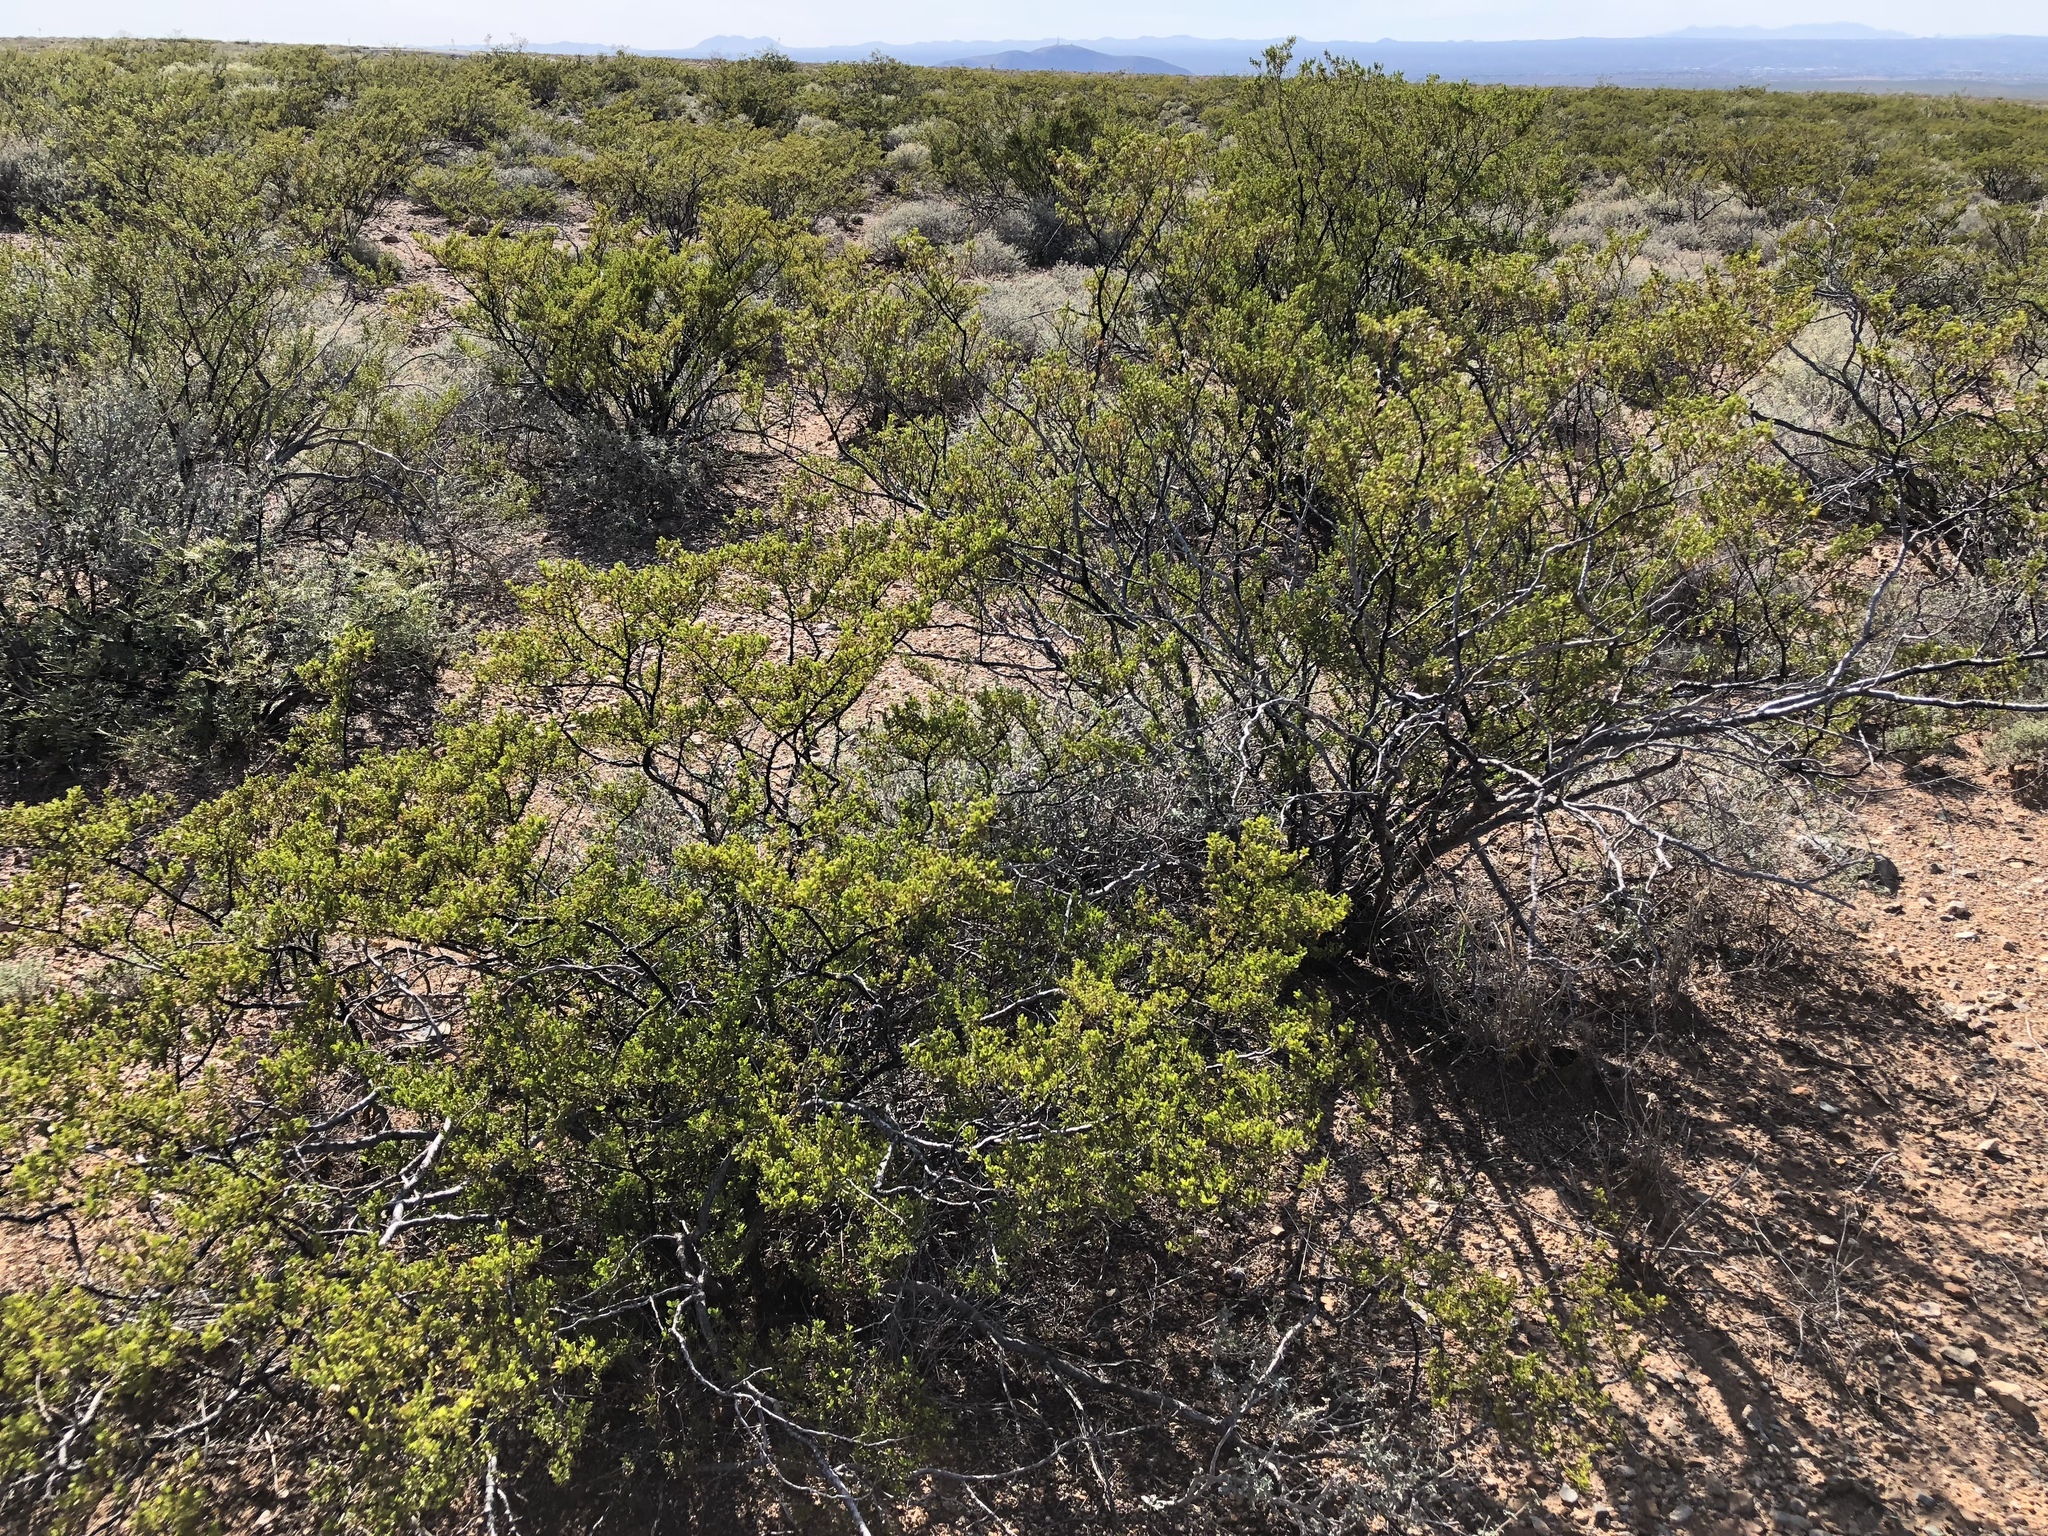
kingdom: Plantae
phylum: Tracheophyta
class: Magnoliopsida
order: Zygophyllales
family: Zygophyllaceae
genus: Larrea
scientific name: Larrea tridentata
